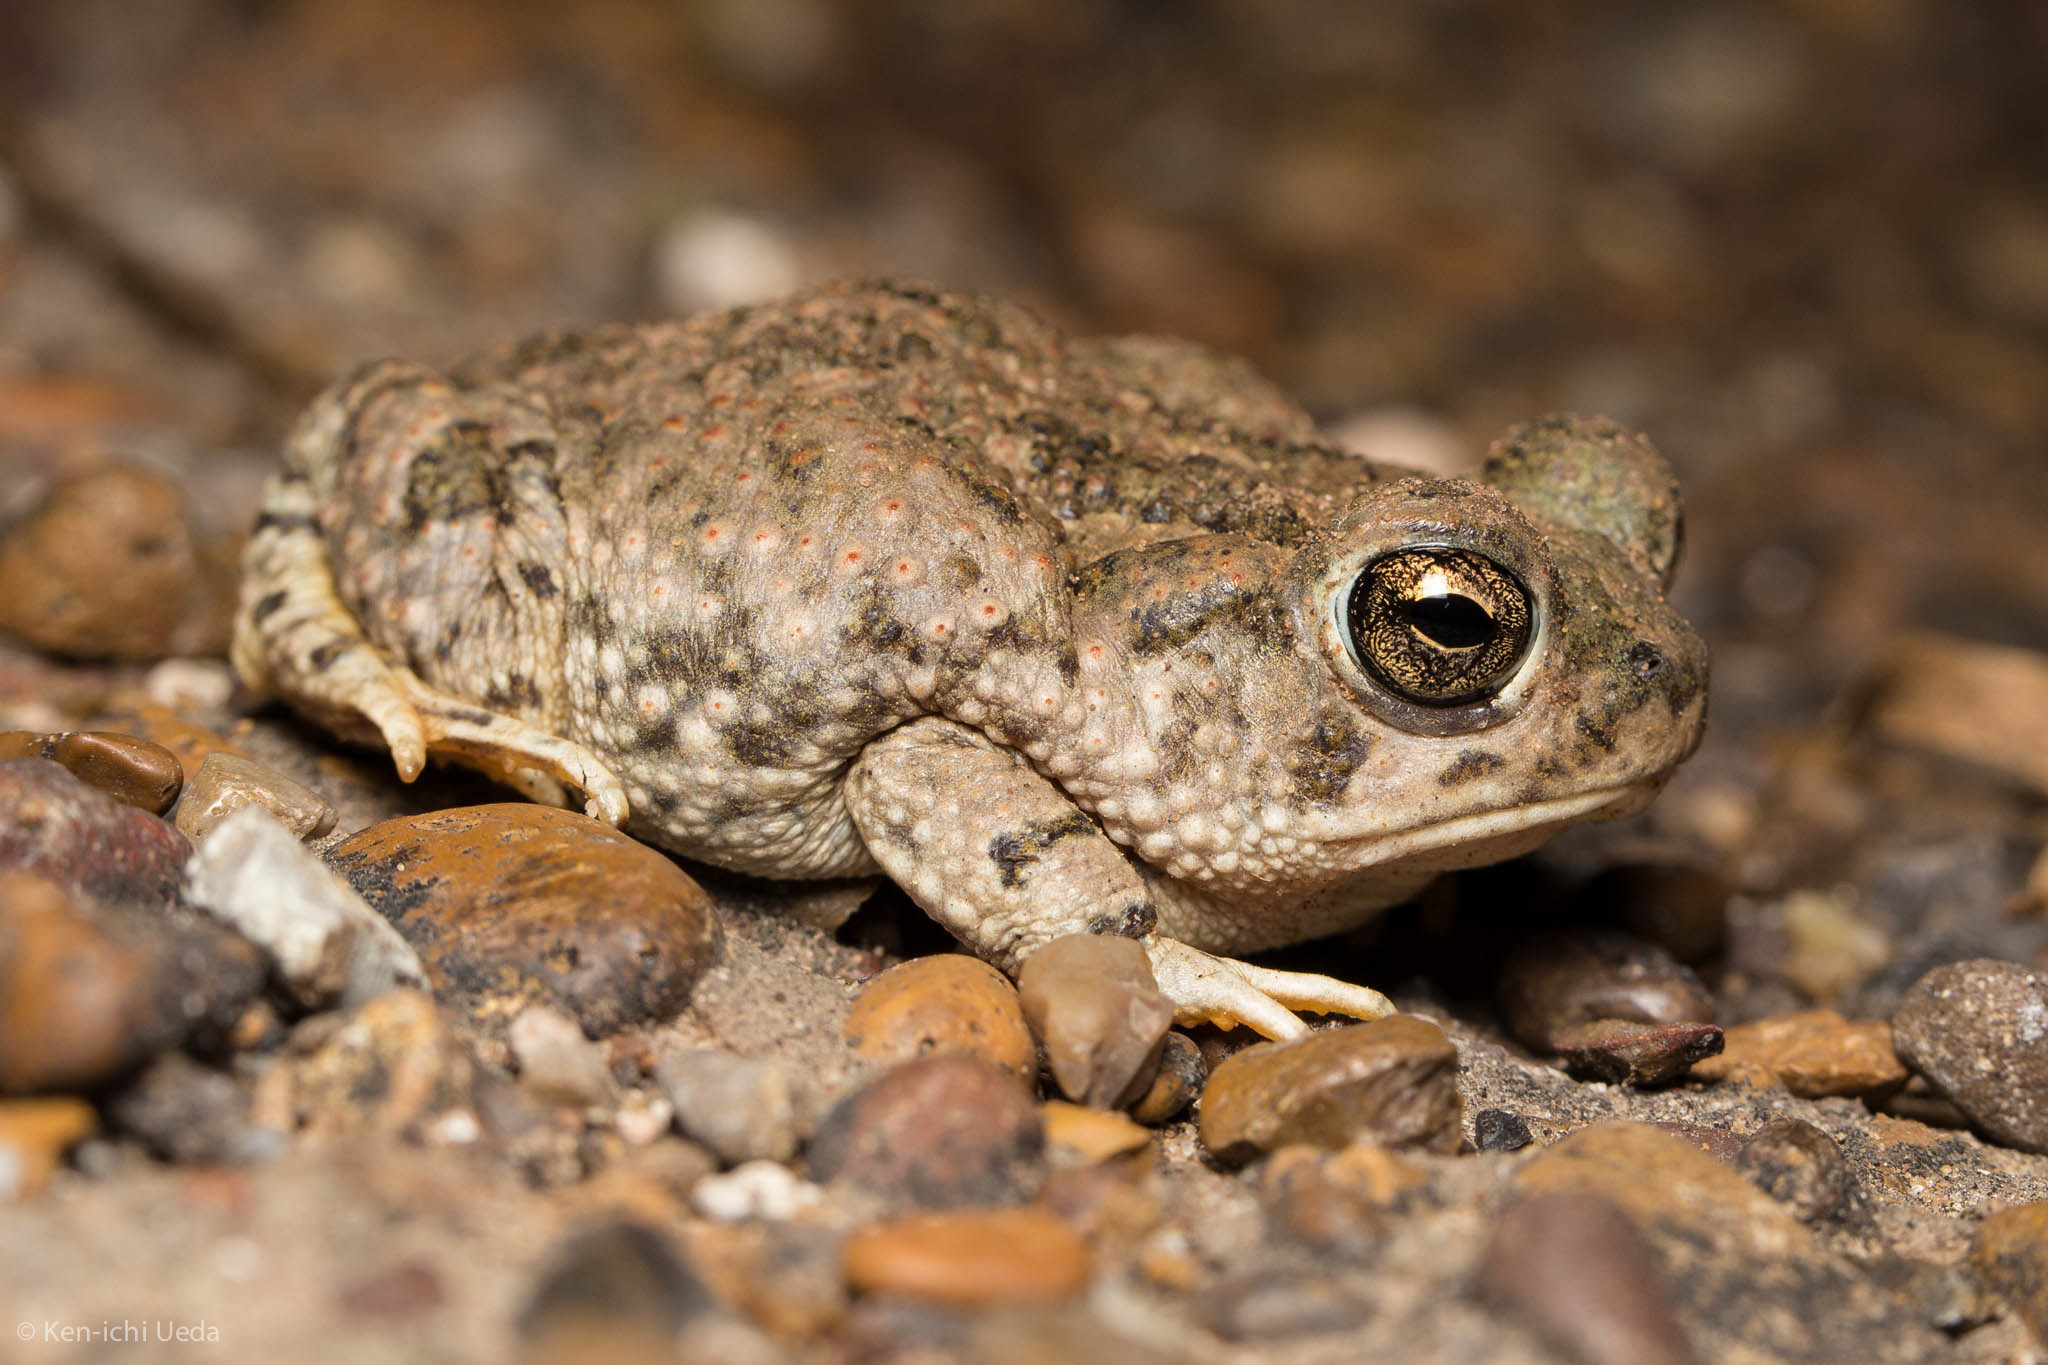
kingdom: Animalia
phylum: Chordata
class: Amphibia
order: Anura
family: Bufonidae
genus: Anaxyrus
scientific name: Anaxyrus speciosus
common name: Texas toad
